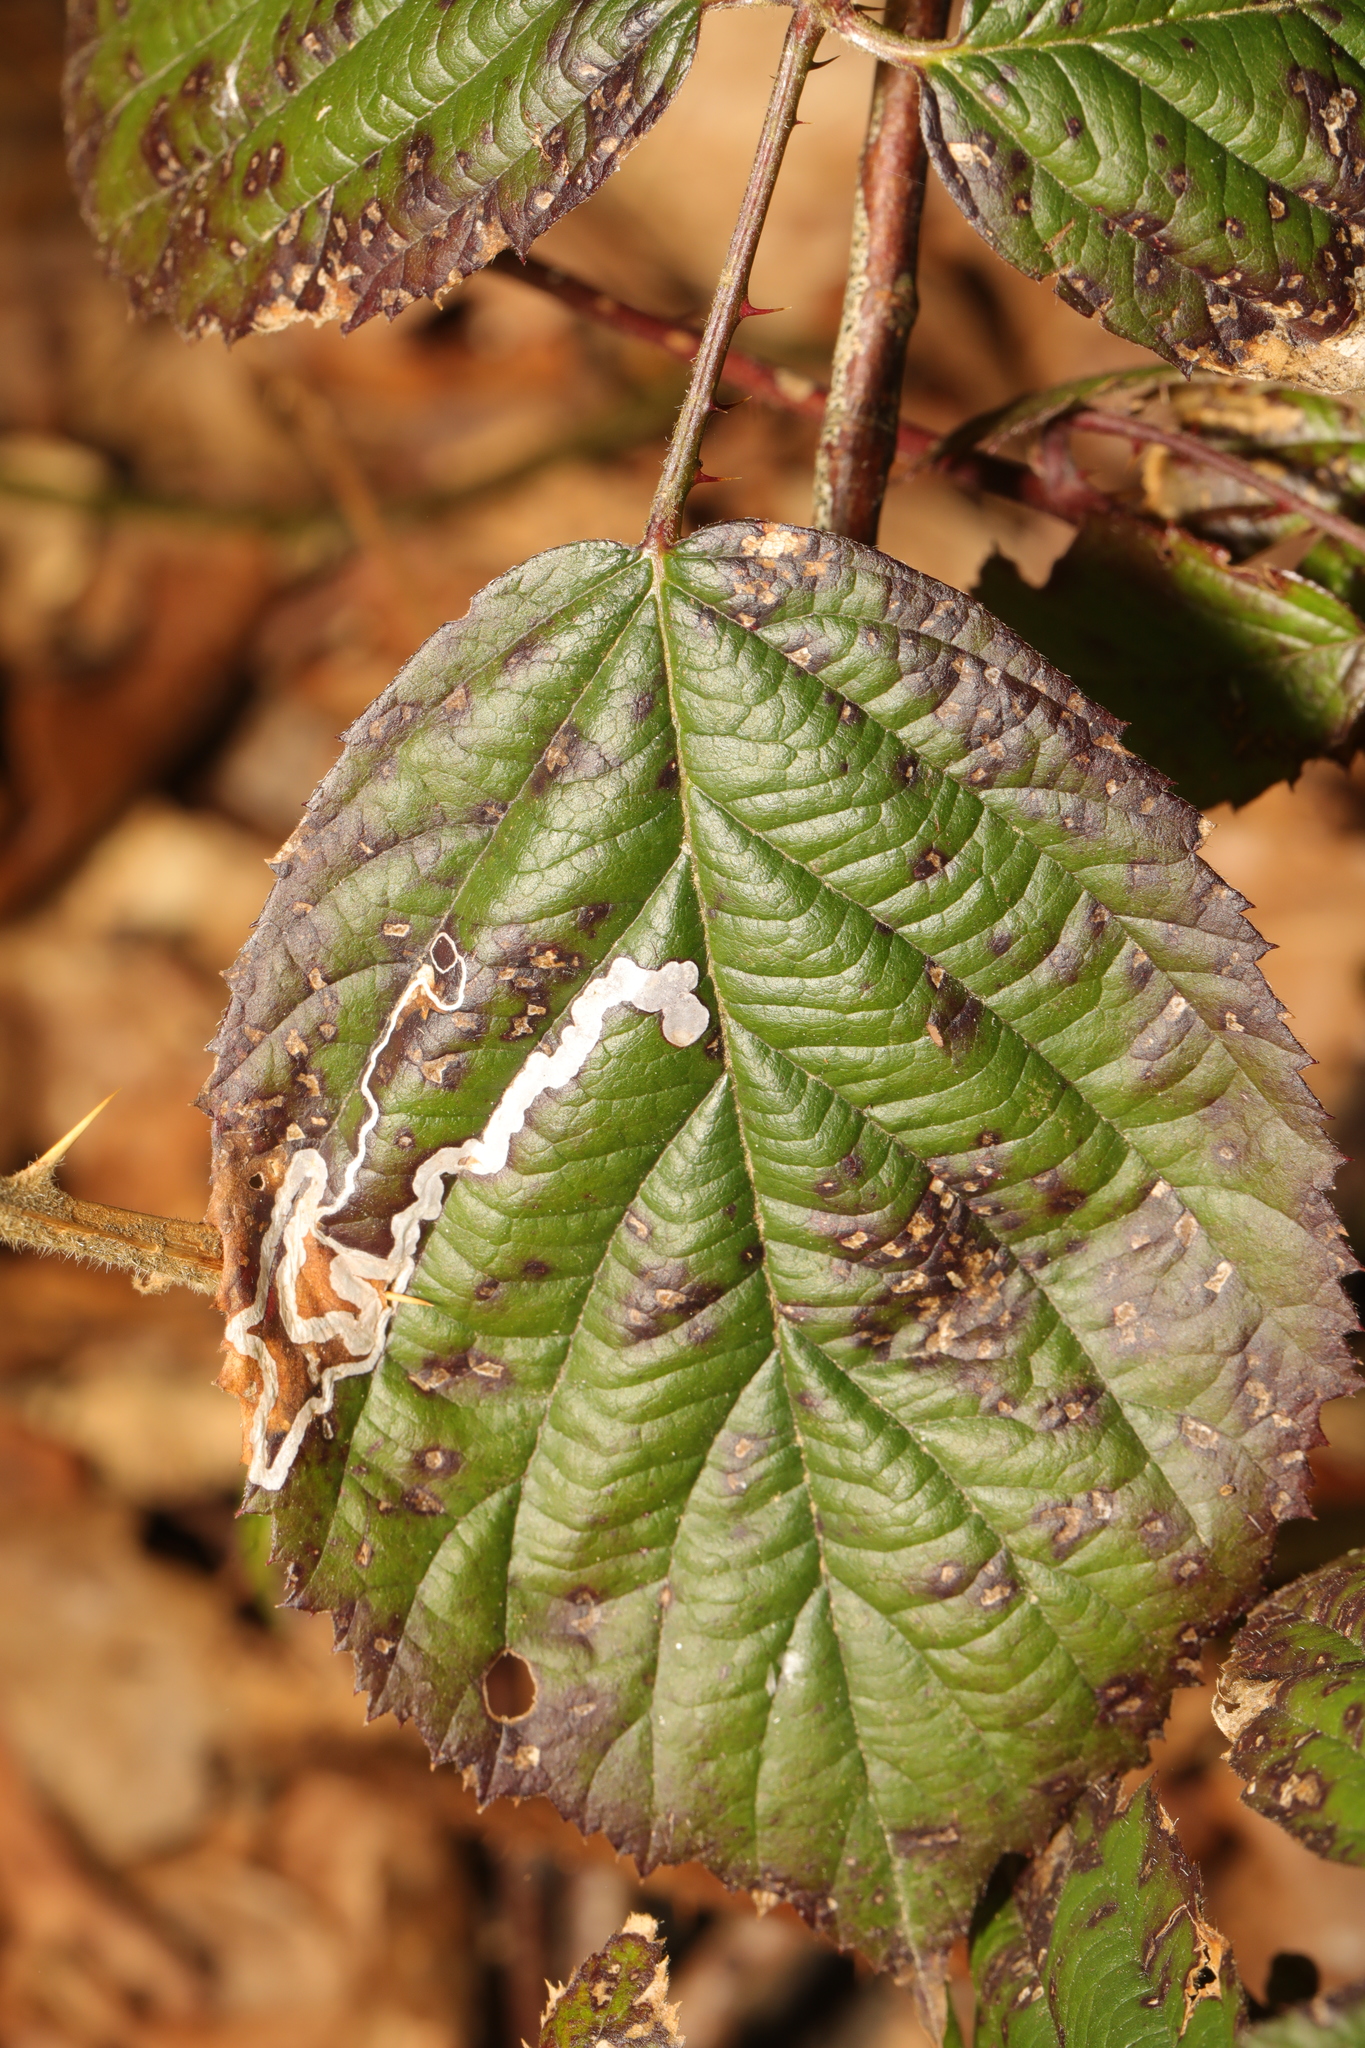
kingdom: Animalia
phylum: Arthropoda
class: Insecta
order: Lepidoptera
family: Nepticulidae
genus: Stigmella
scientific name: Stigmella aurella
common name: Golden pigmy
